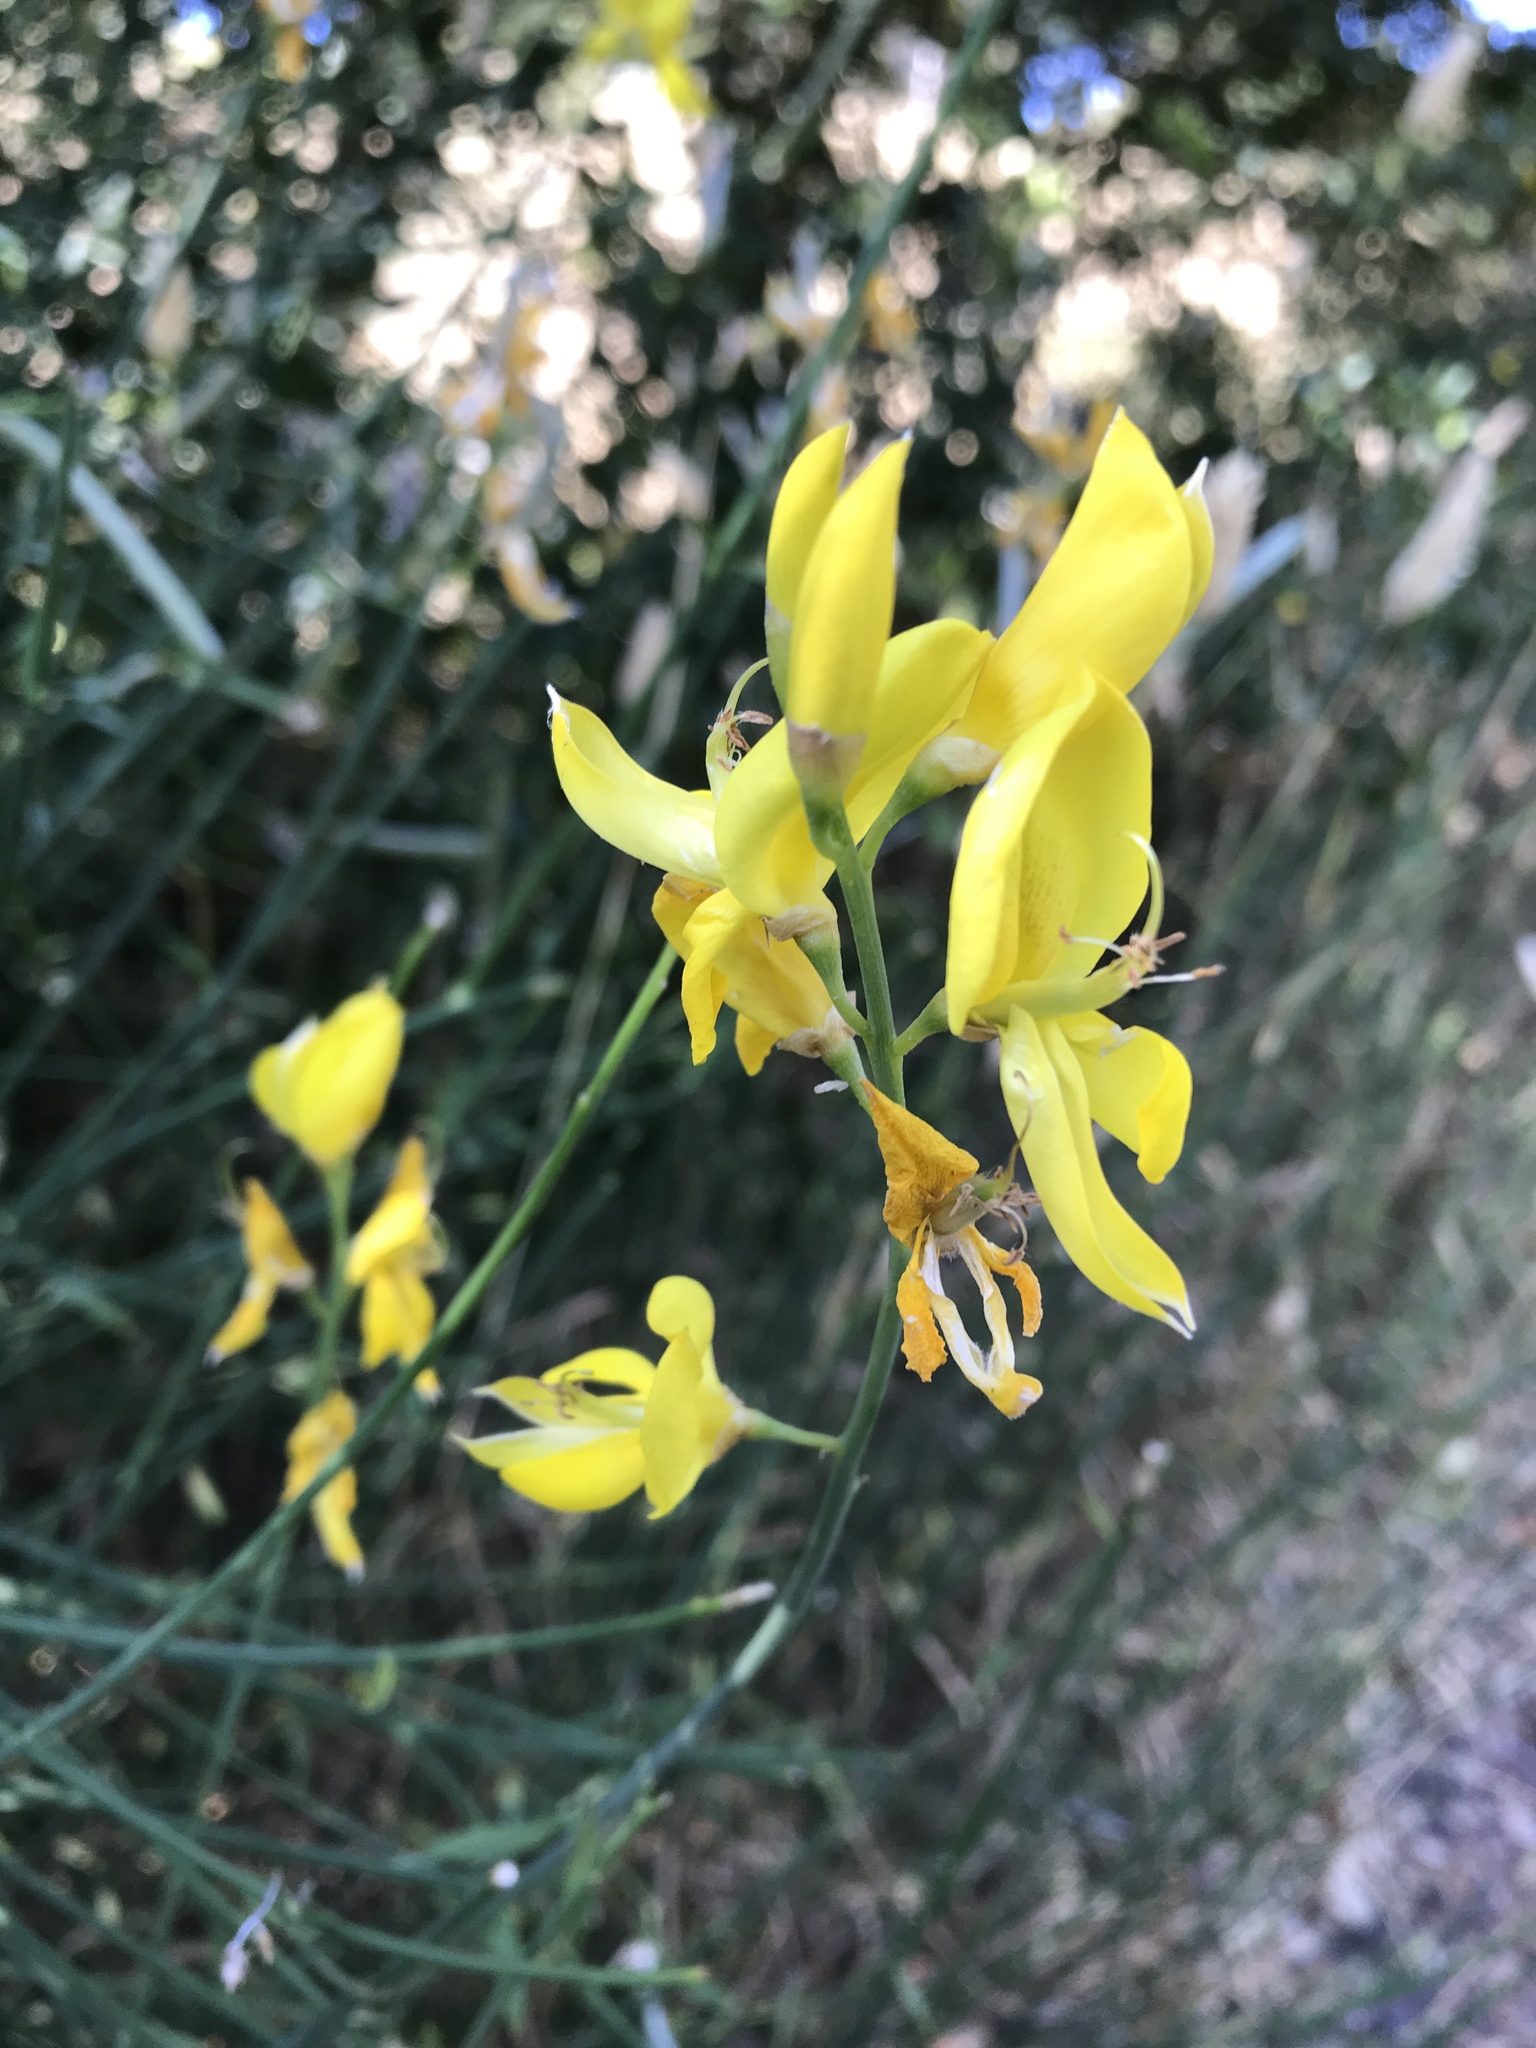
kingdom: Plantae
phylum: Tracheophyta
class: Magnoliopsida
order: Fabales
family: Fabaceae
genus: Spartium
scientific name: Spartium junceum
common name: Spanish broom
